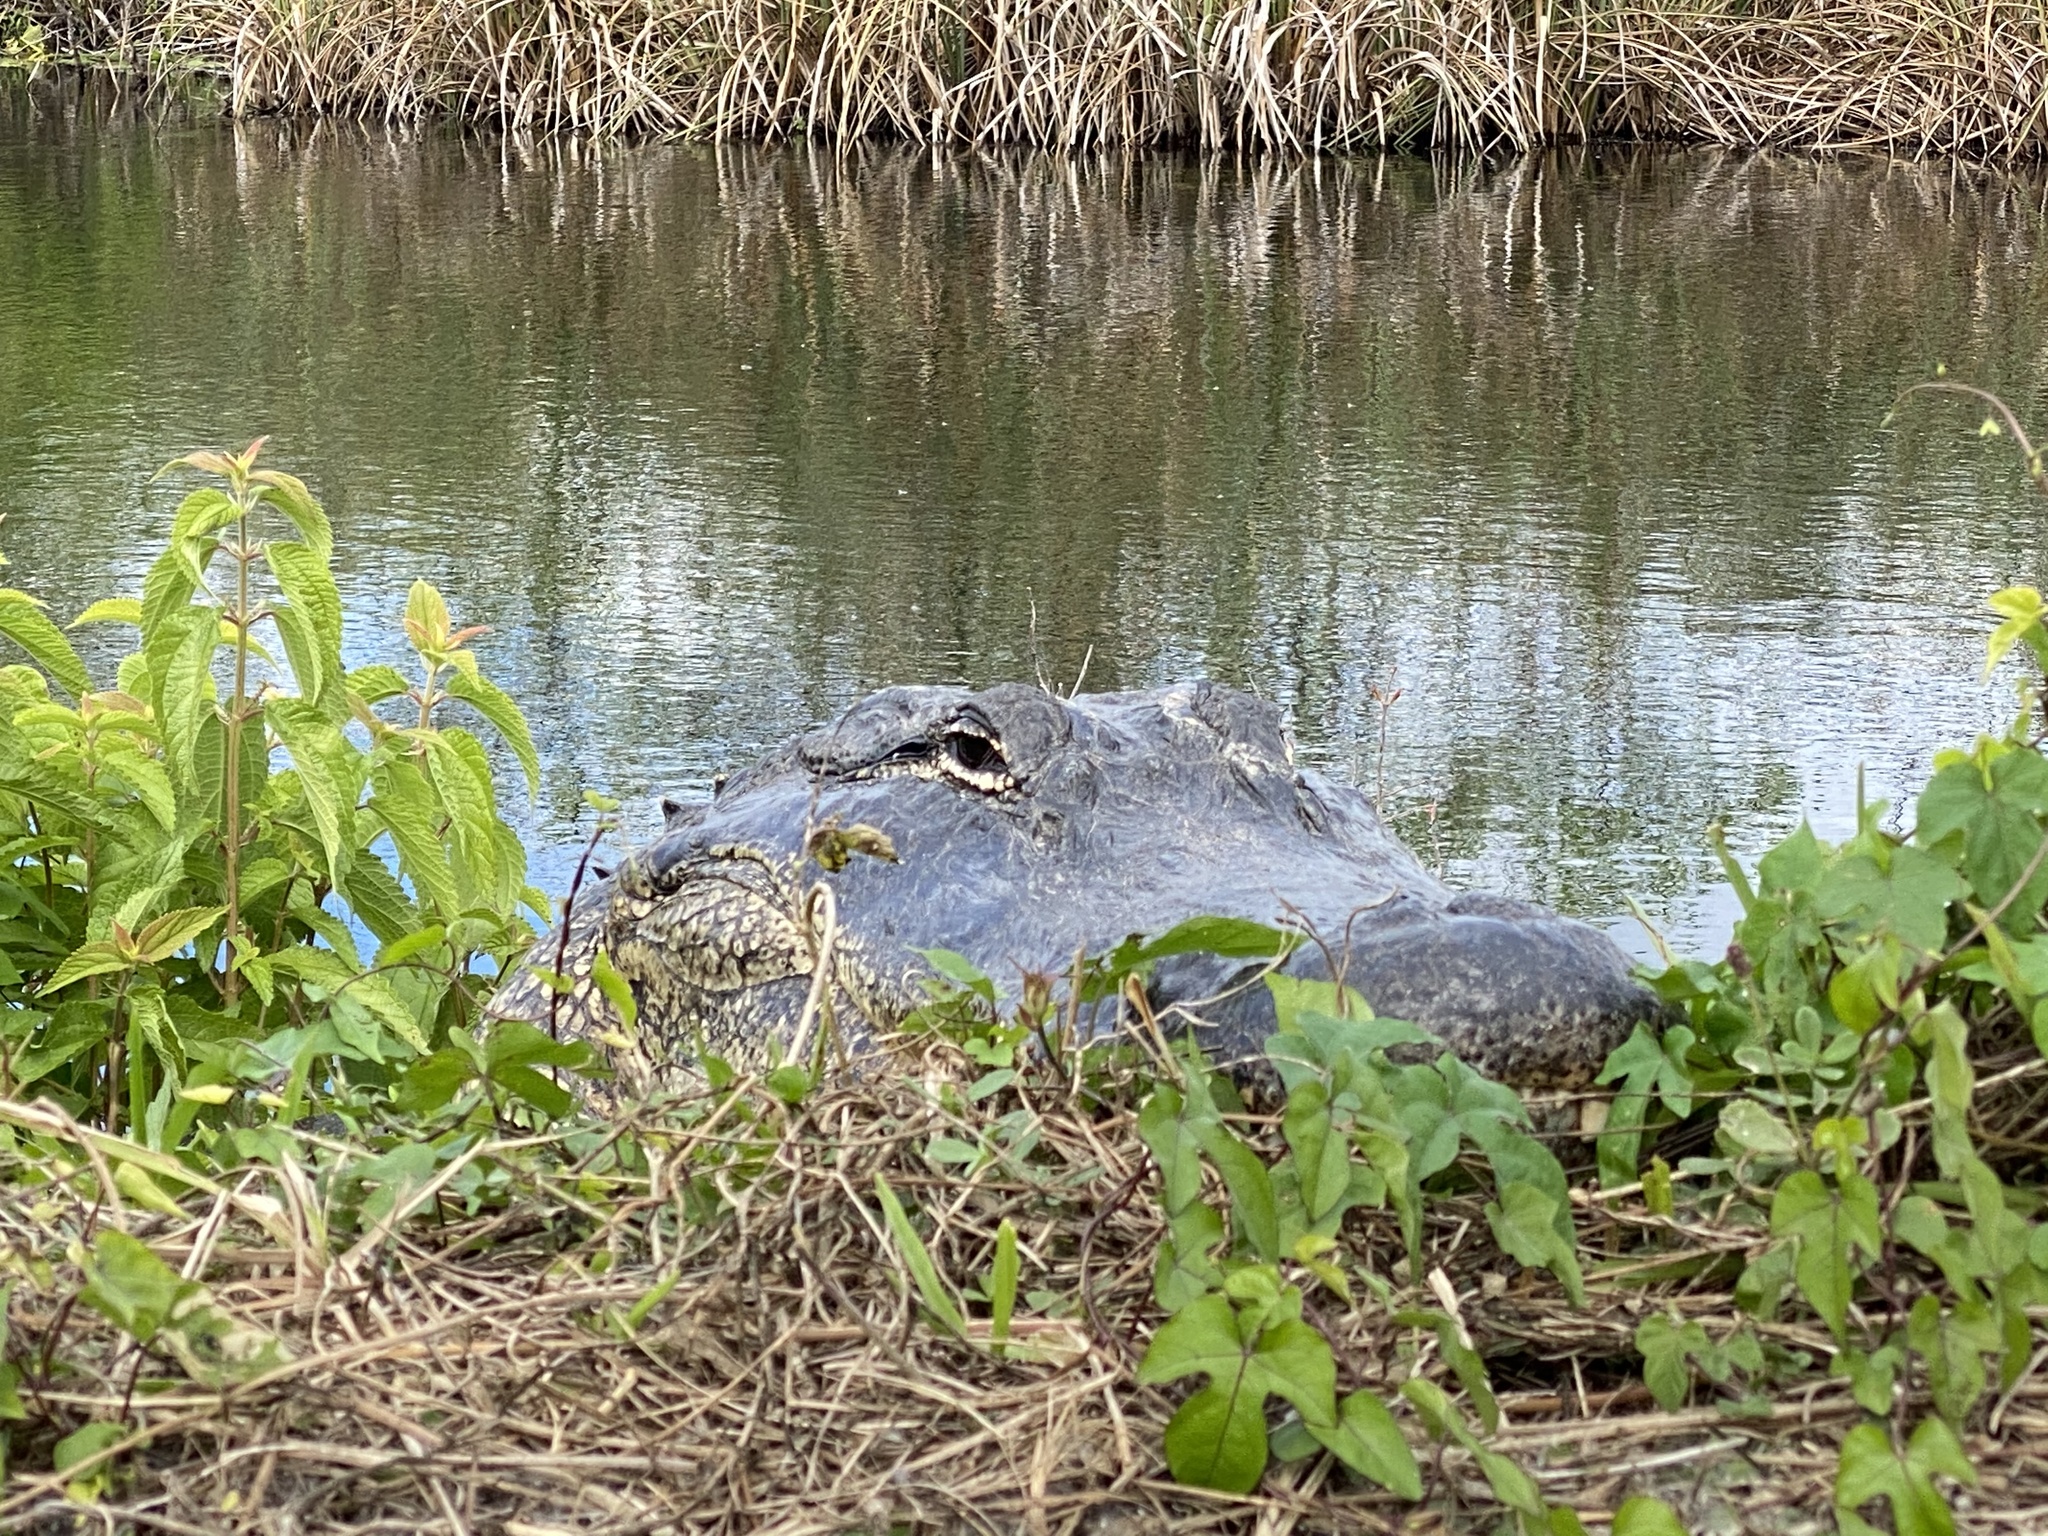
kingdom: Animalia
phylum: Chordata
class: Crocodylia
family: Alligatoridae
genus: Alligator
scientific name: Alligator mississippiensis
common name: American alligator
